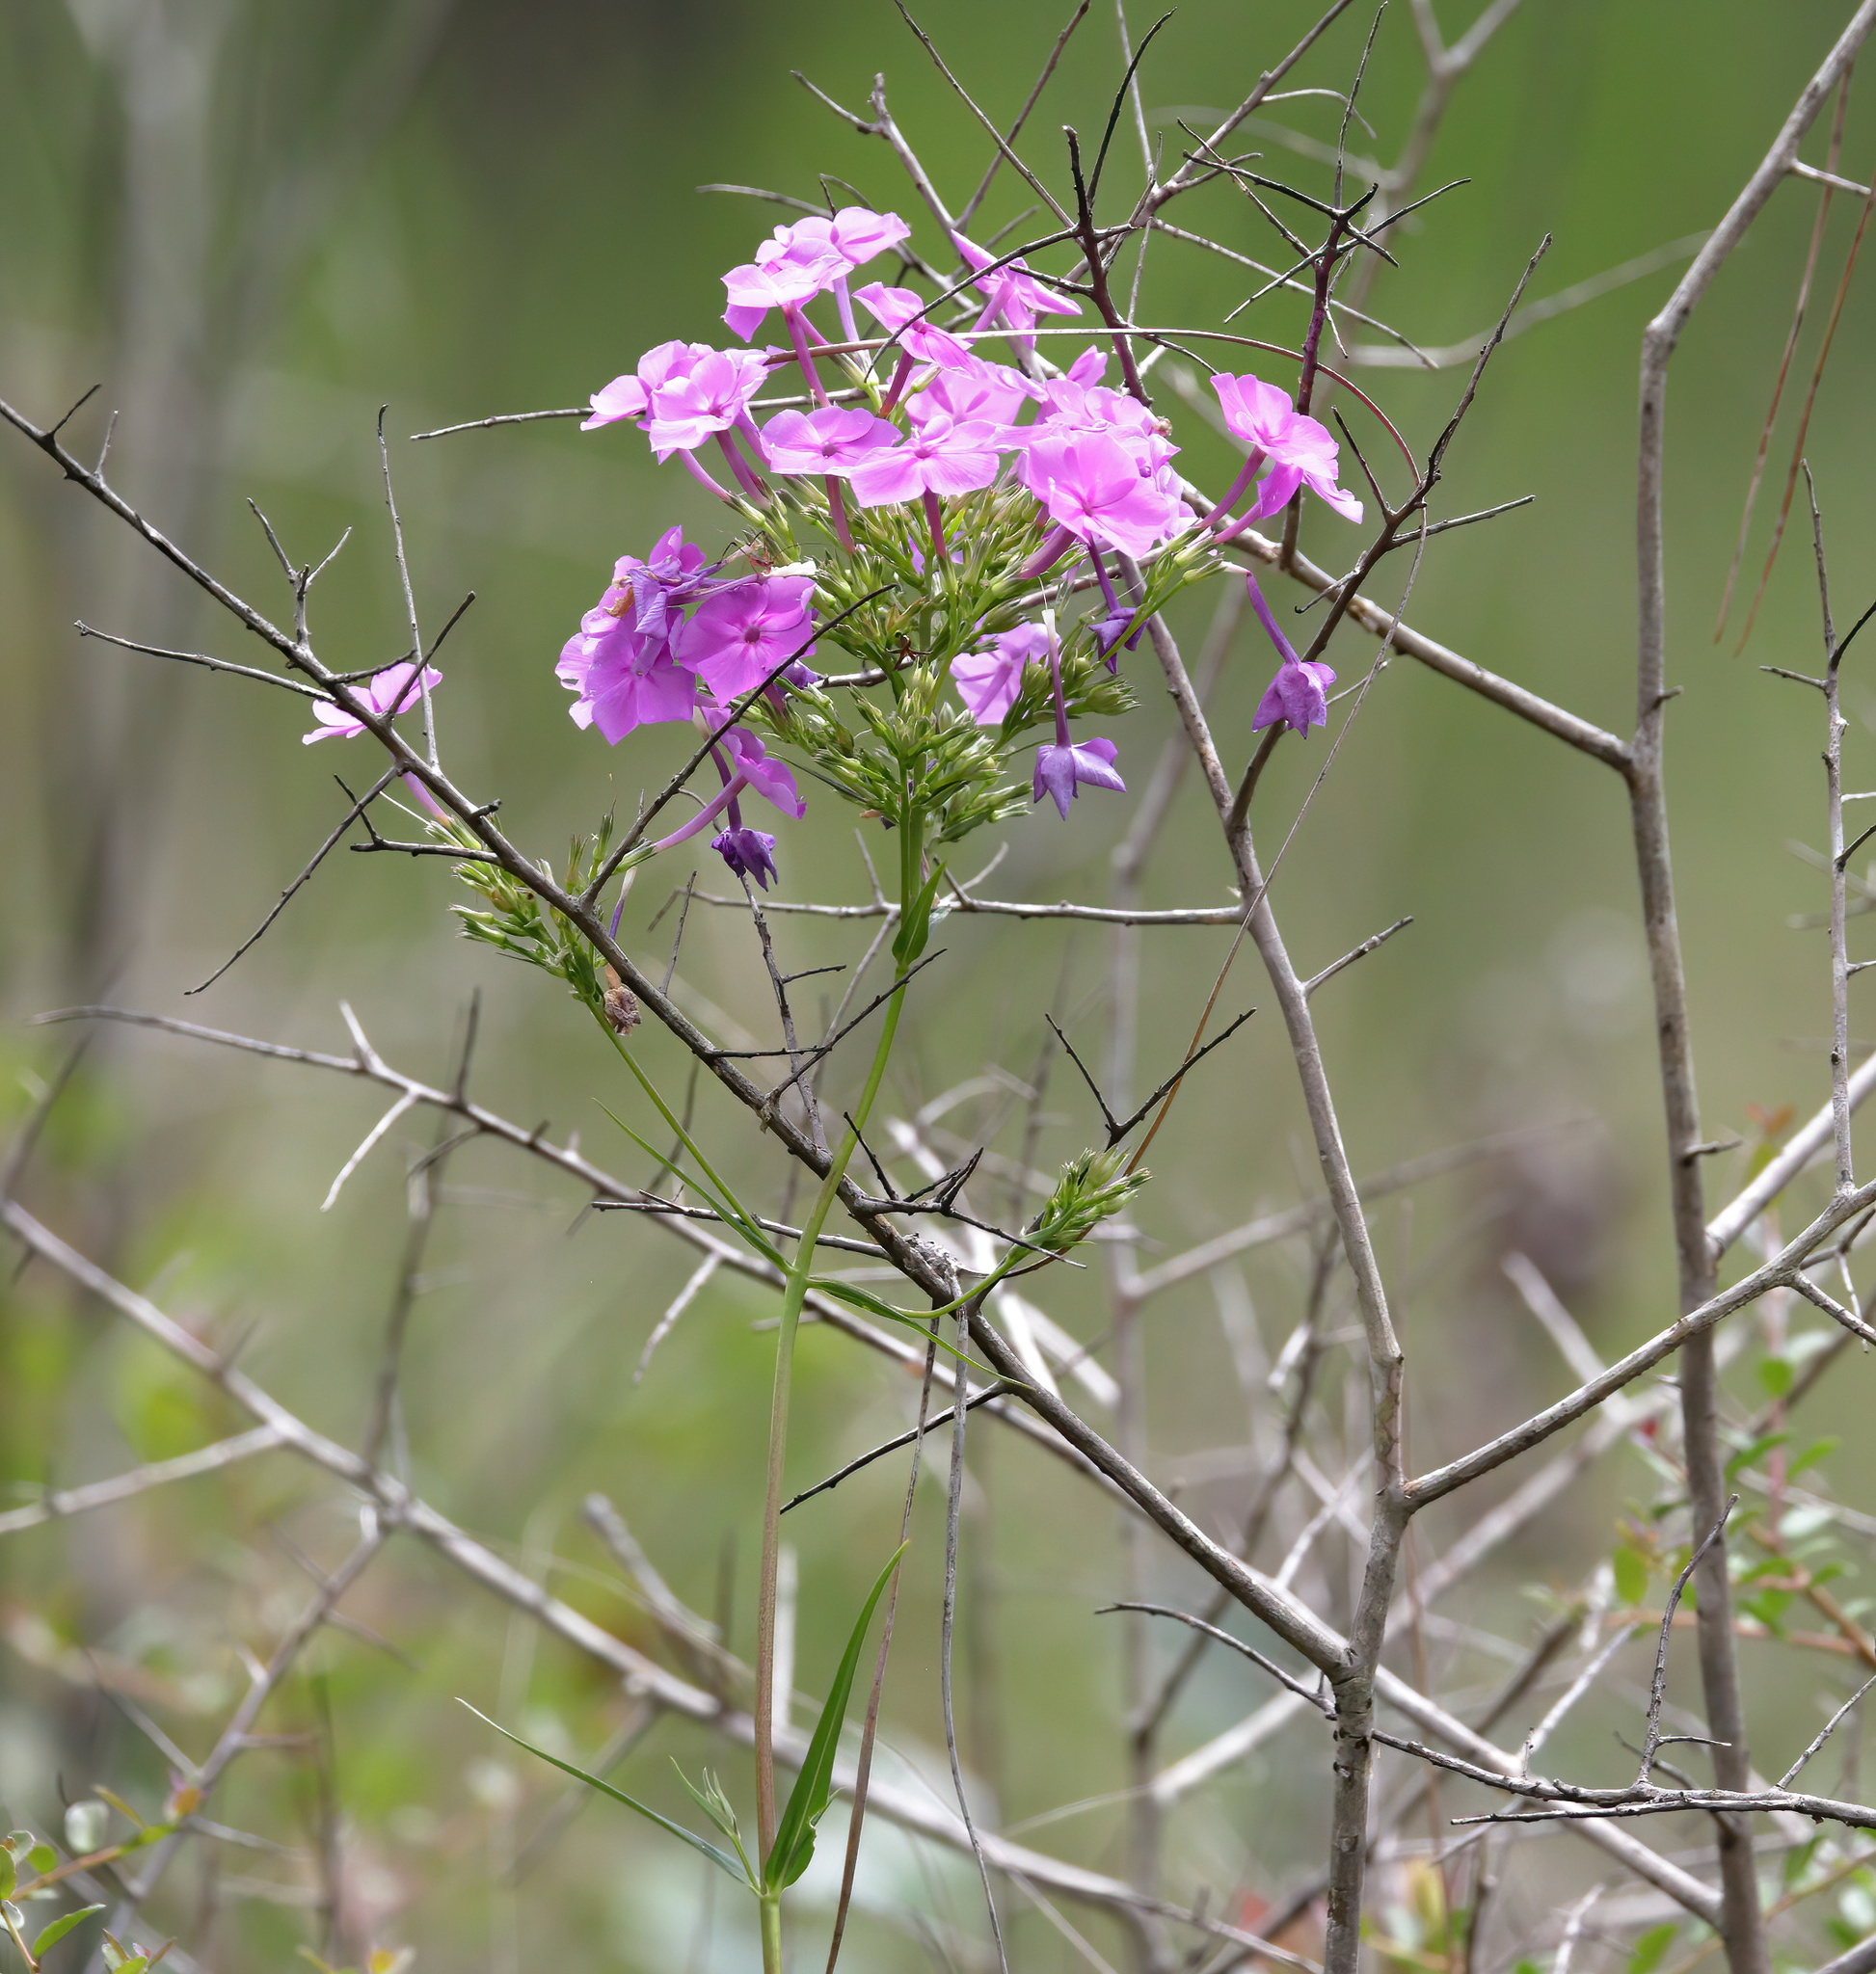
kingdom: Plantae
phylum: Tracheophyta
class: Magnoliopsida
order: Ericales
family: Polemoniaceae
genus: Phlox
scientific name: Phlox carolina
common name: Thick-leaf phlox
